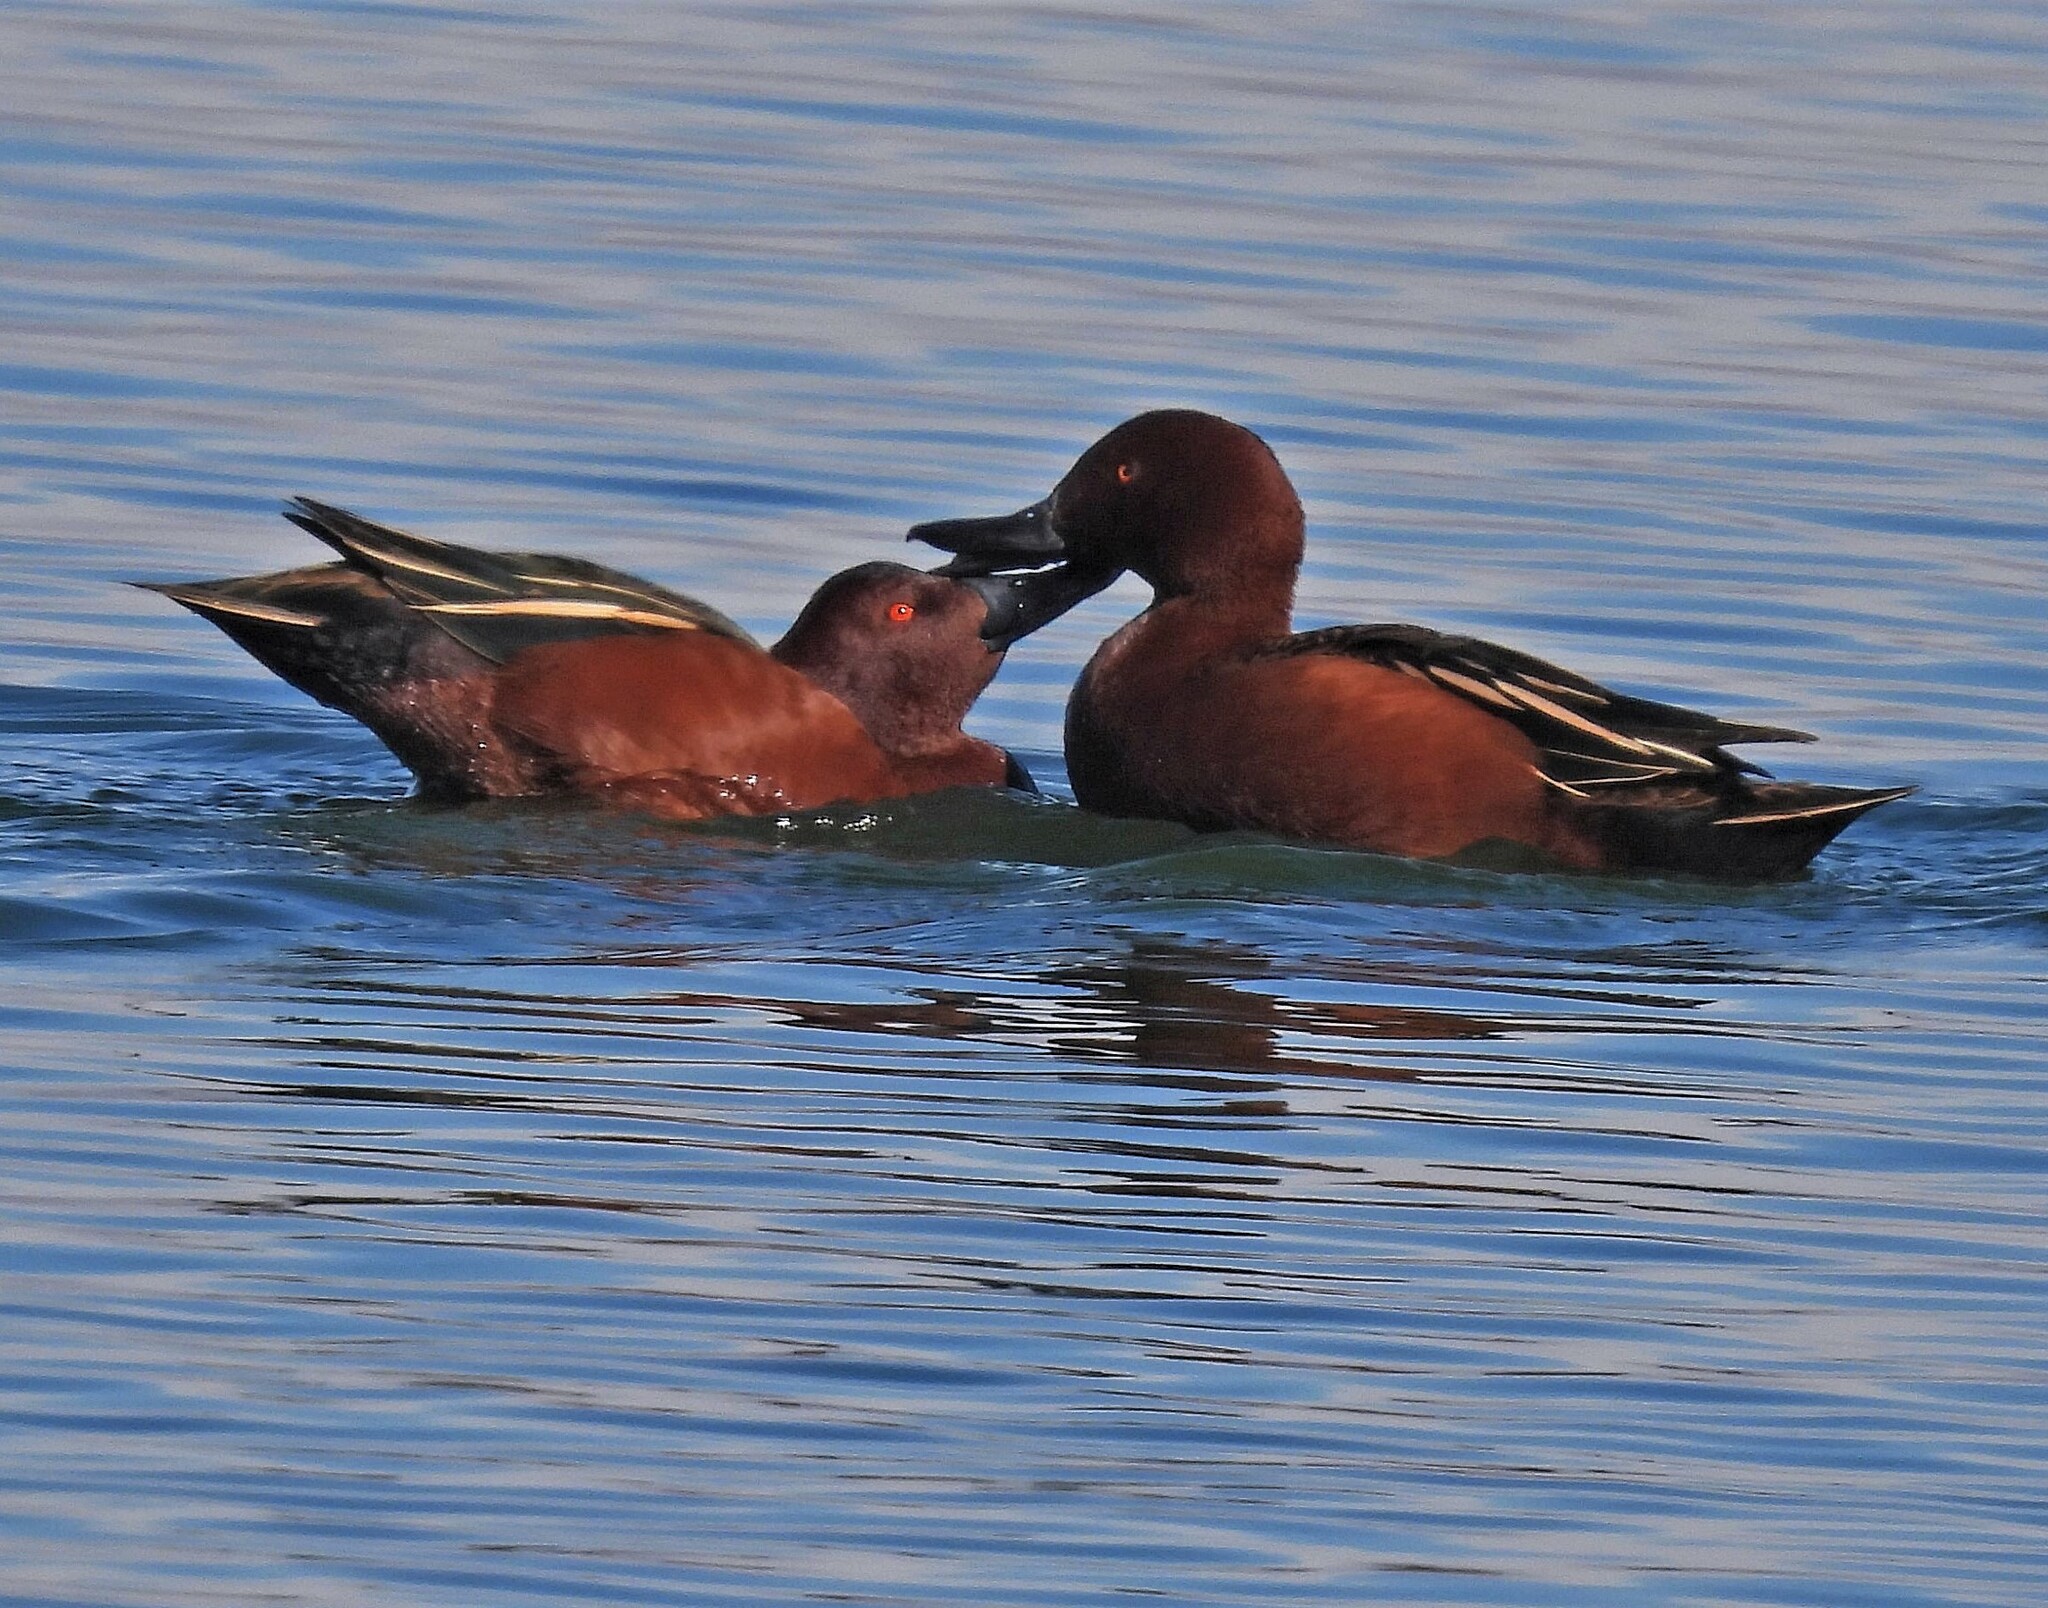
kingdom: Animalia
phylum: Chordata
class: Aves
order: Anseriformes
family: Anatidae
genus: Spatula
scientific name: Spatula cyanoptera
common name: Cinnamon teal
